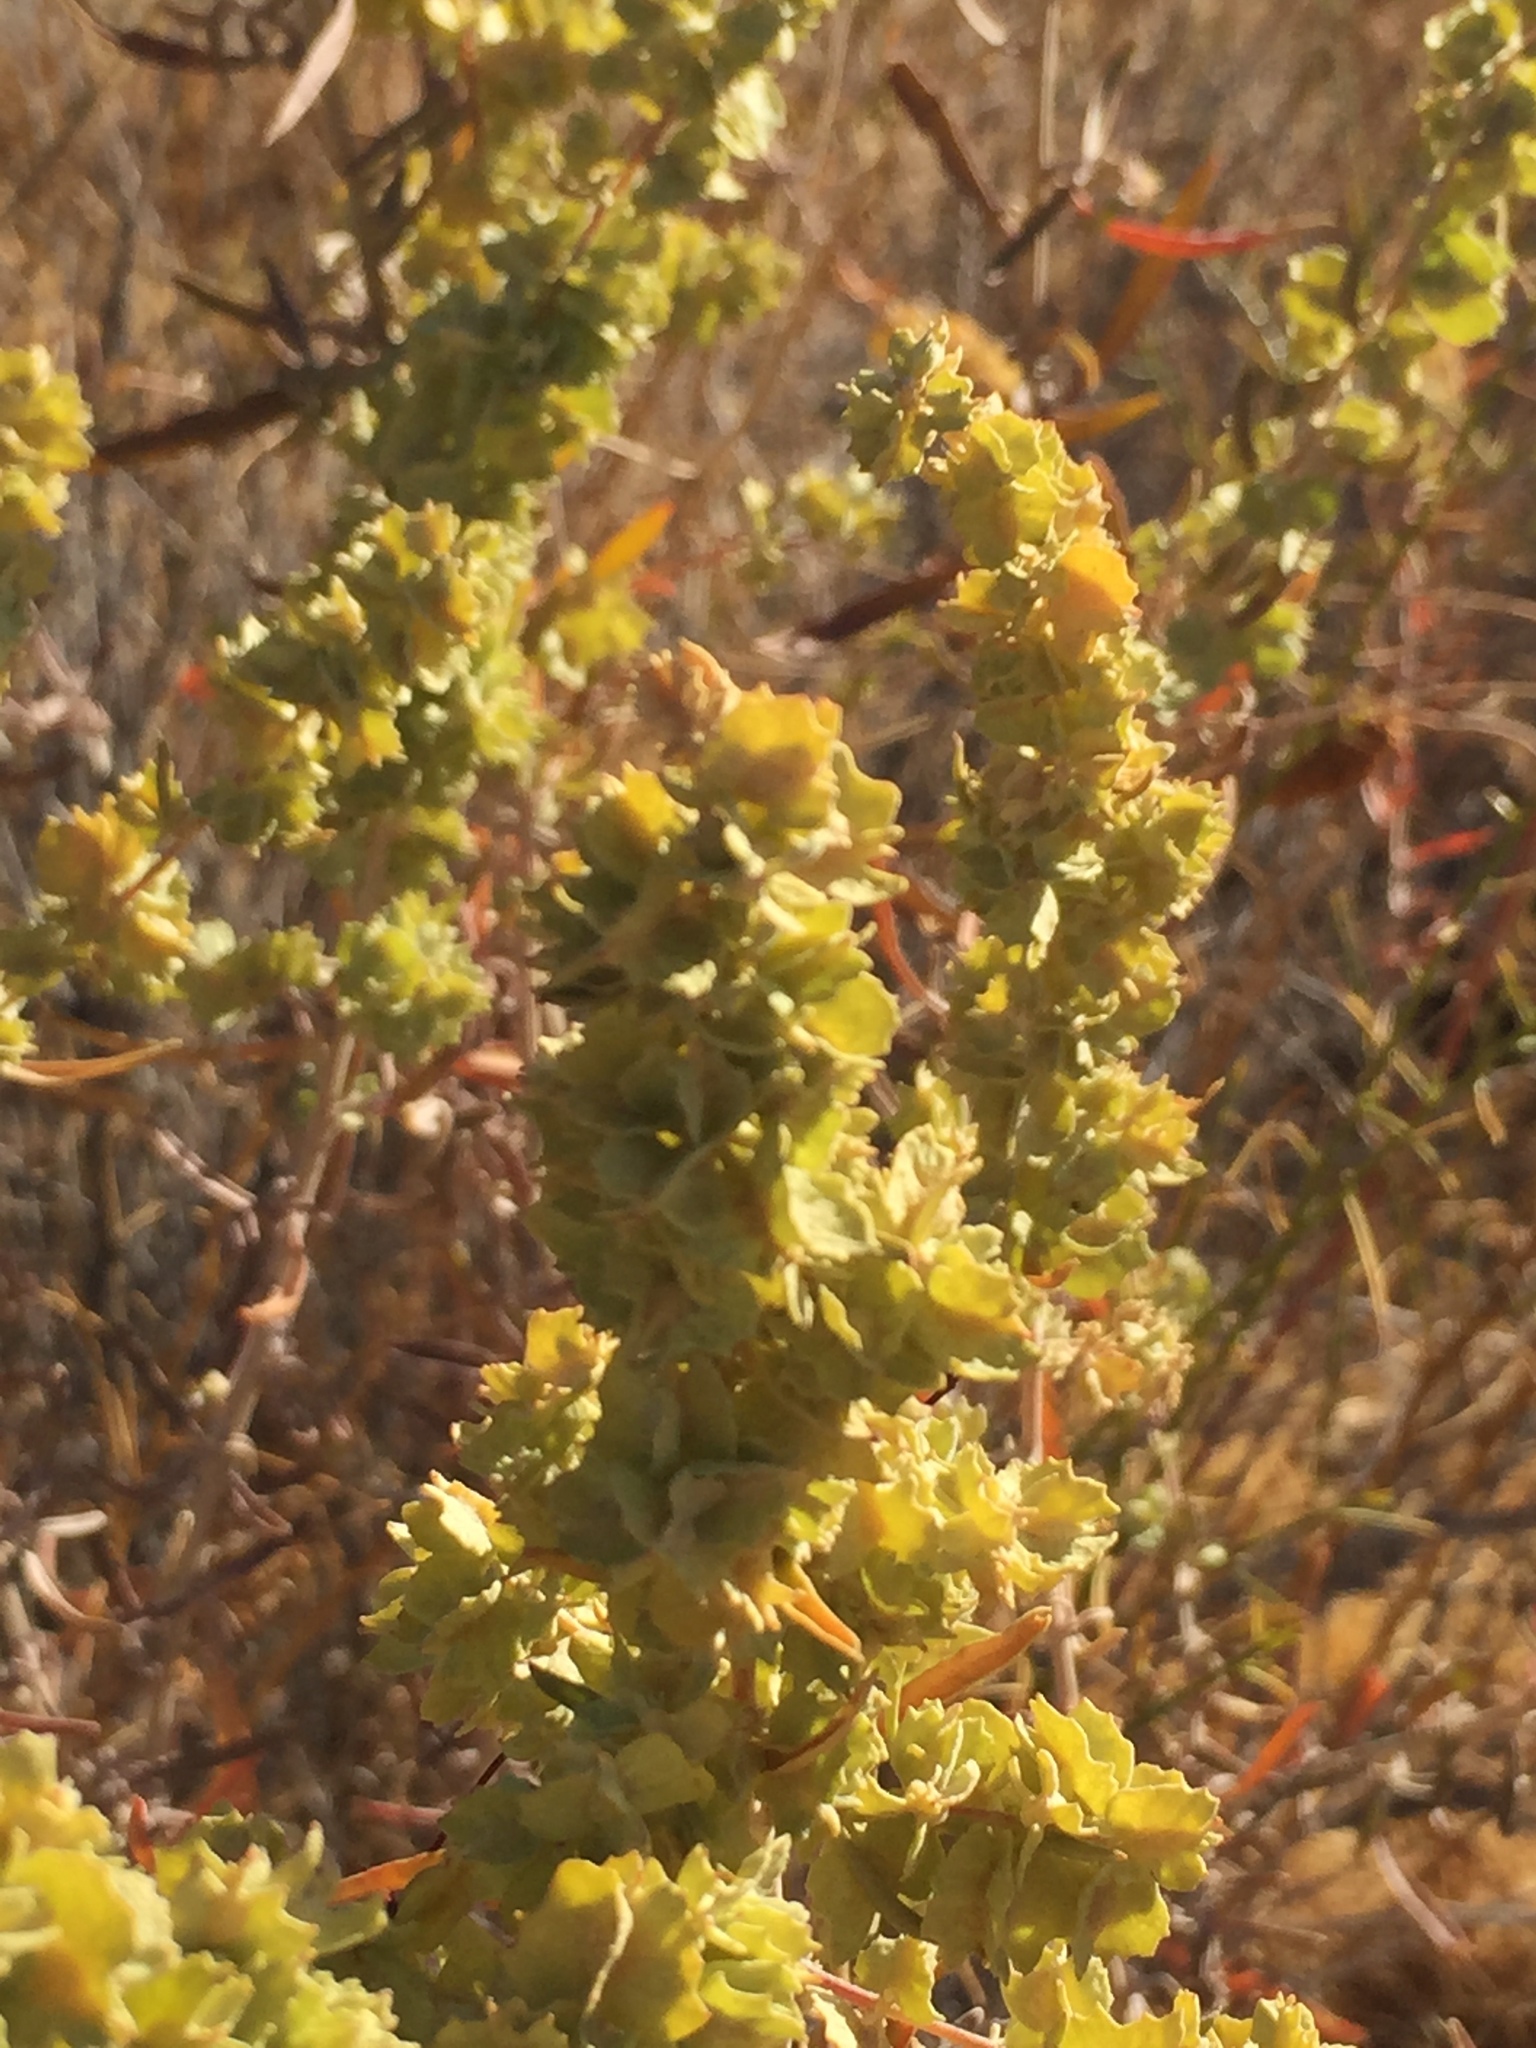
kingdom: Plantae
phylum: Tracheophyta
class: Magnoliopsida
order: Caryophyllales
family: Amaranthaceae
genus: Atriplex
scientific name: Atriplex canescens
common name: Four-wing saltbush
